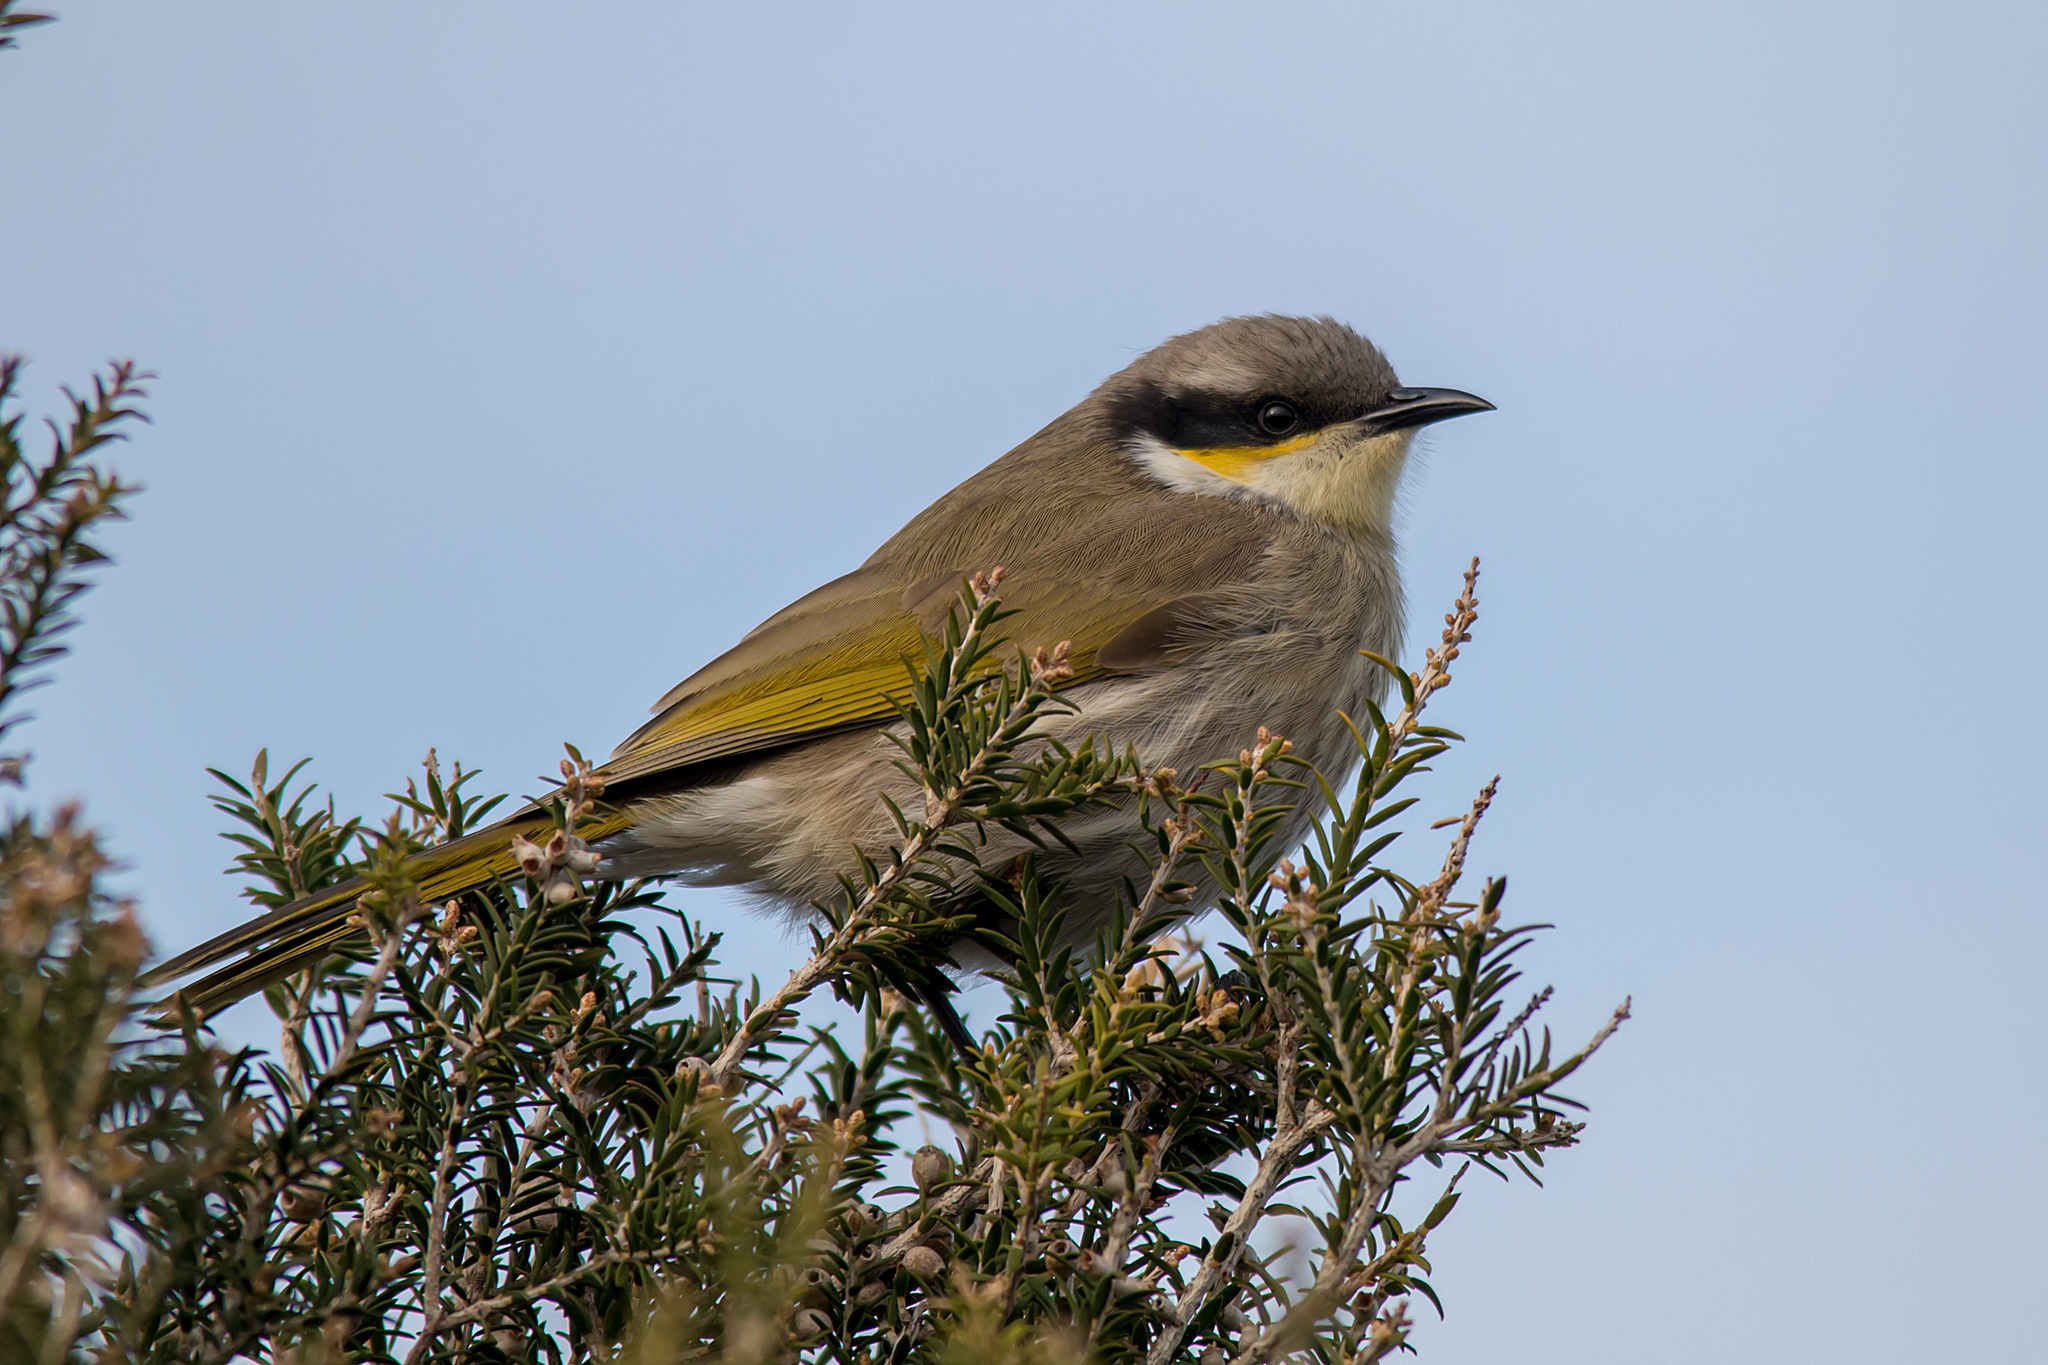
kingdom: Animalia
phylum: Chordata
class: Aves
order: Passeriformes
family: Meliphagidae
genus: Gavicalis
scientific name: Gavicalis virescens
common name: Singing honeyeater
